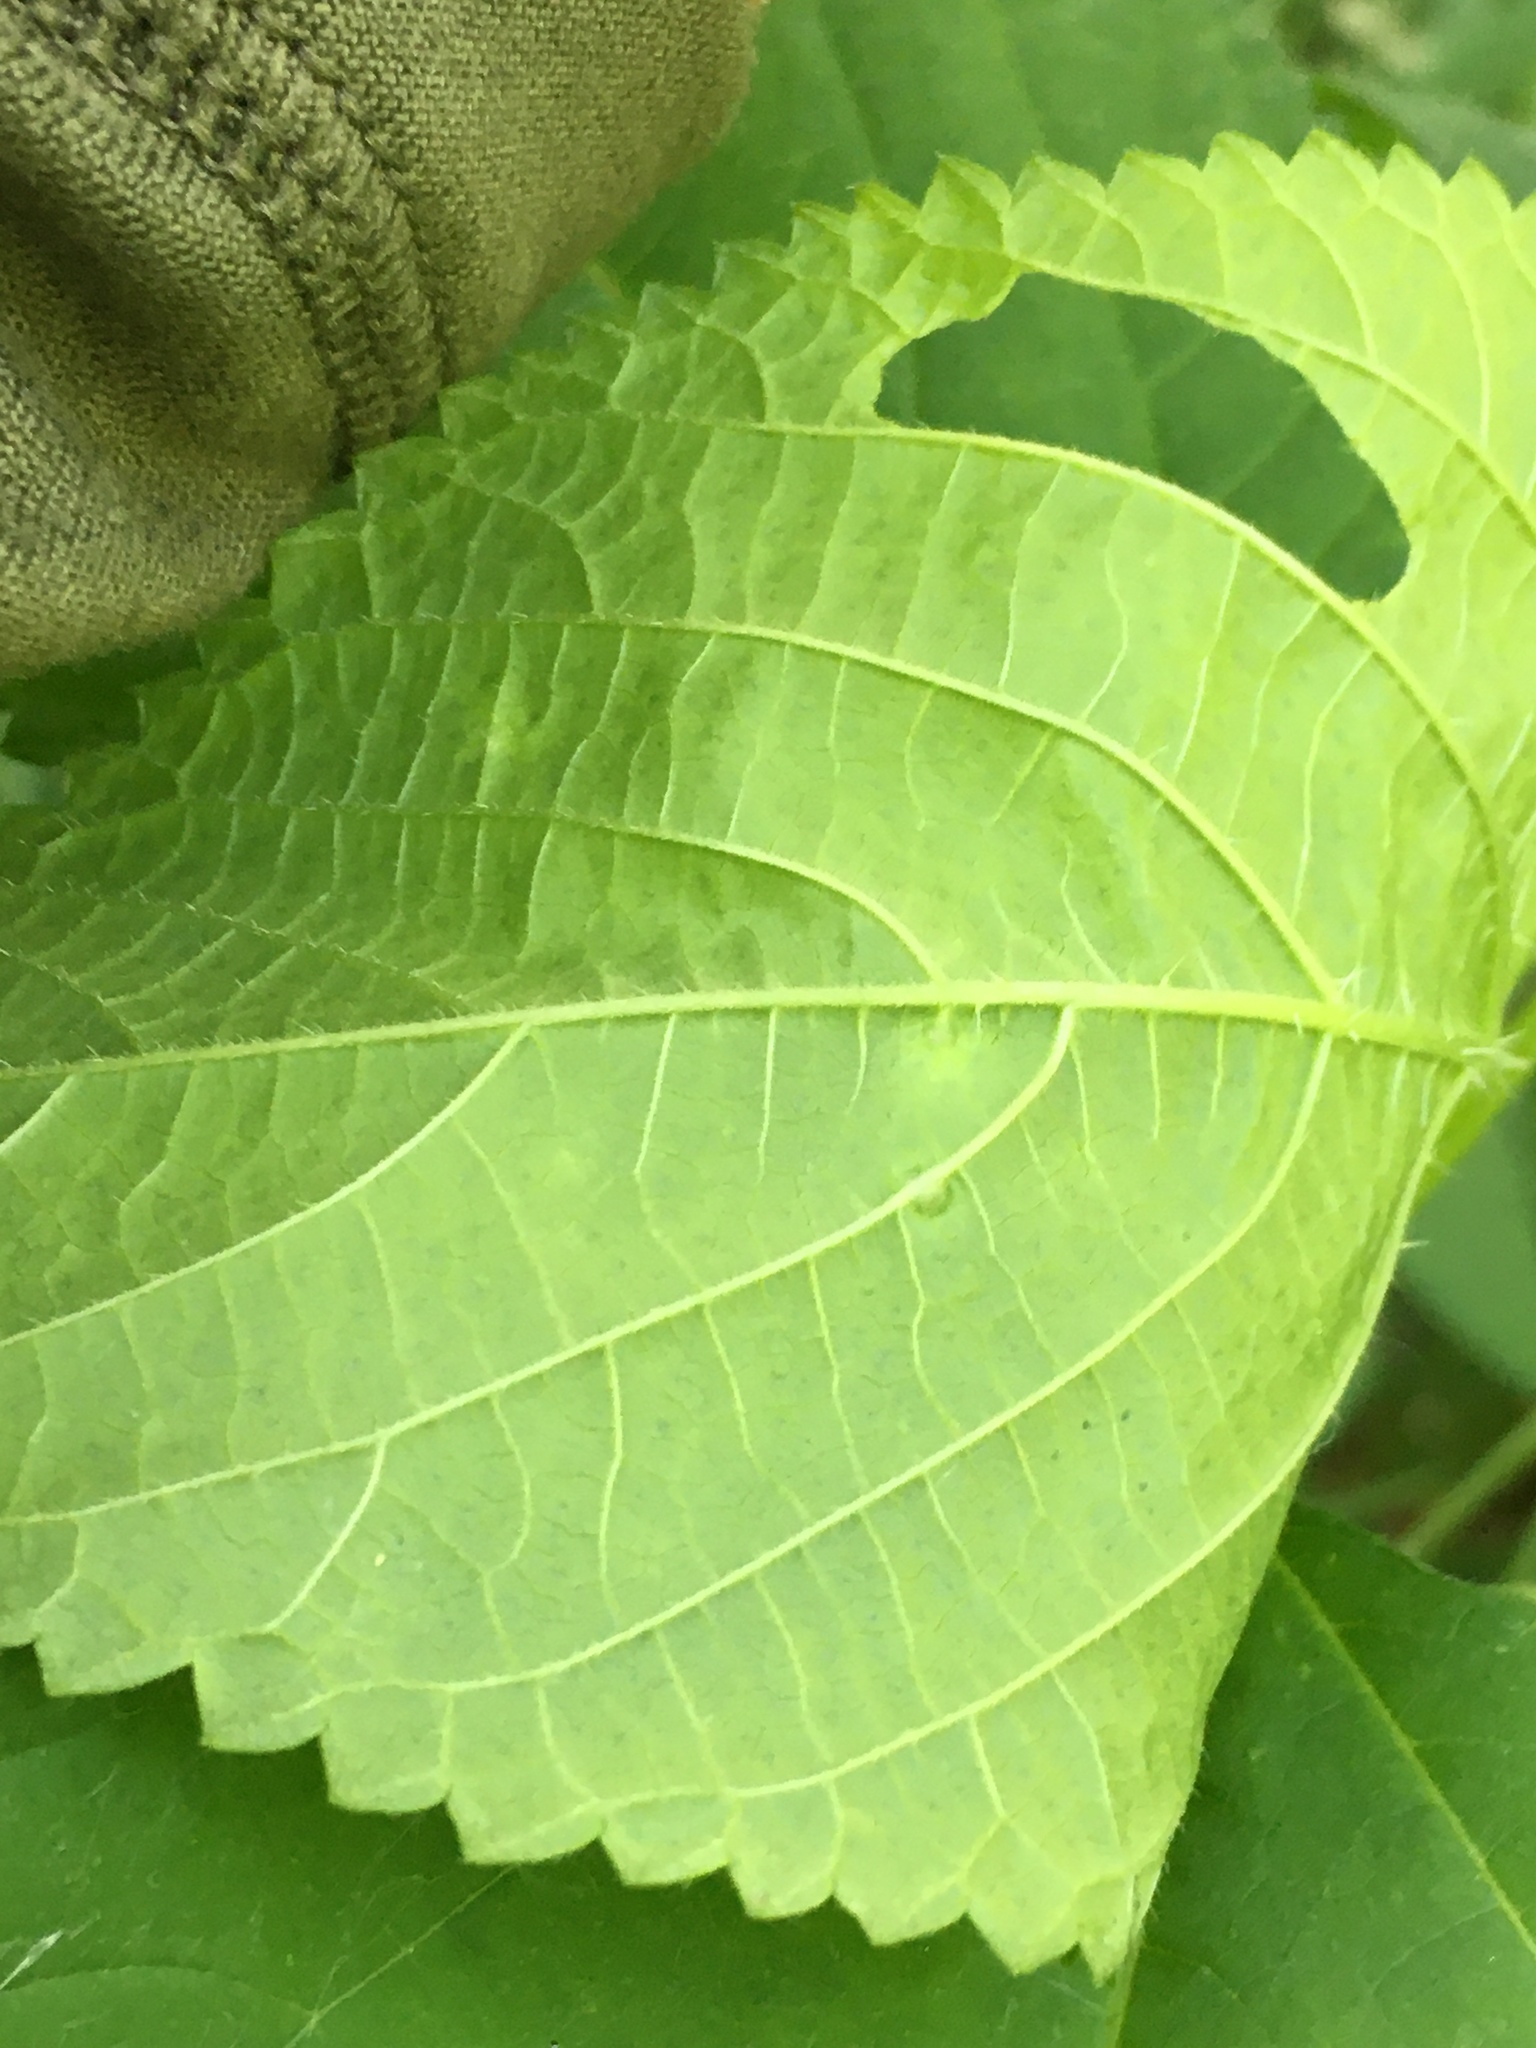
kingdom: Animalia
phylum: Arthropoda
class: Insecta
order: Diptera
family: Cecidomyiidae
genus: Dasineura
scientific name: Dasineura investita
